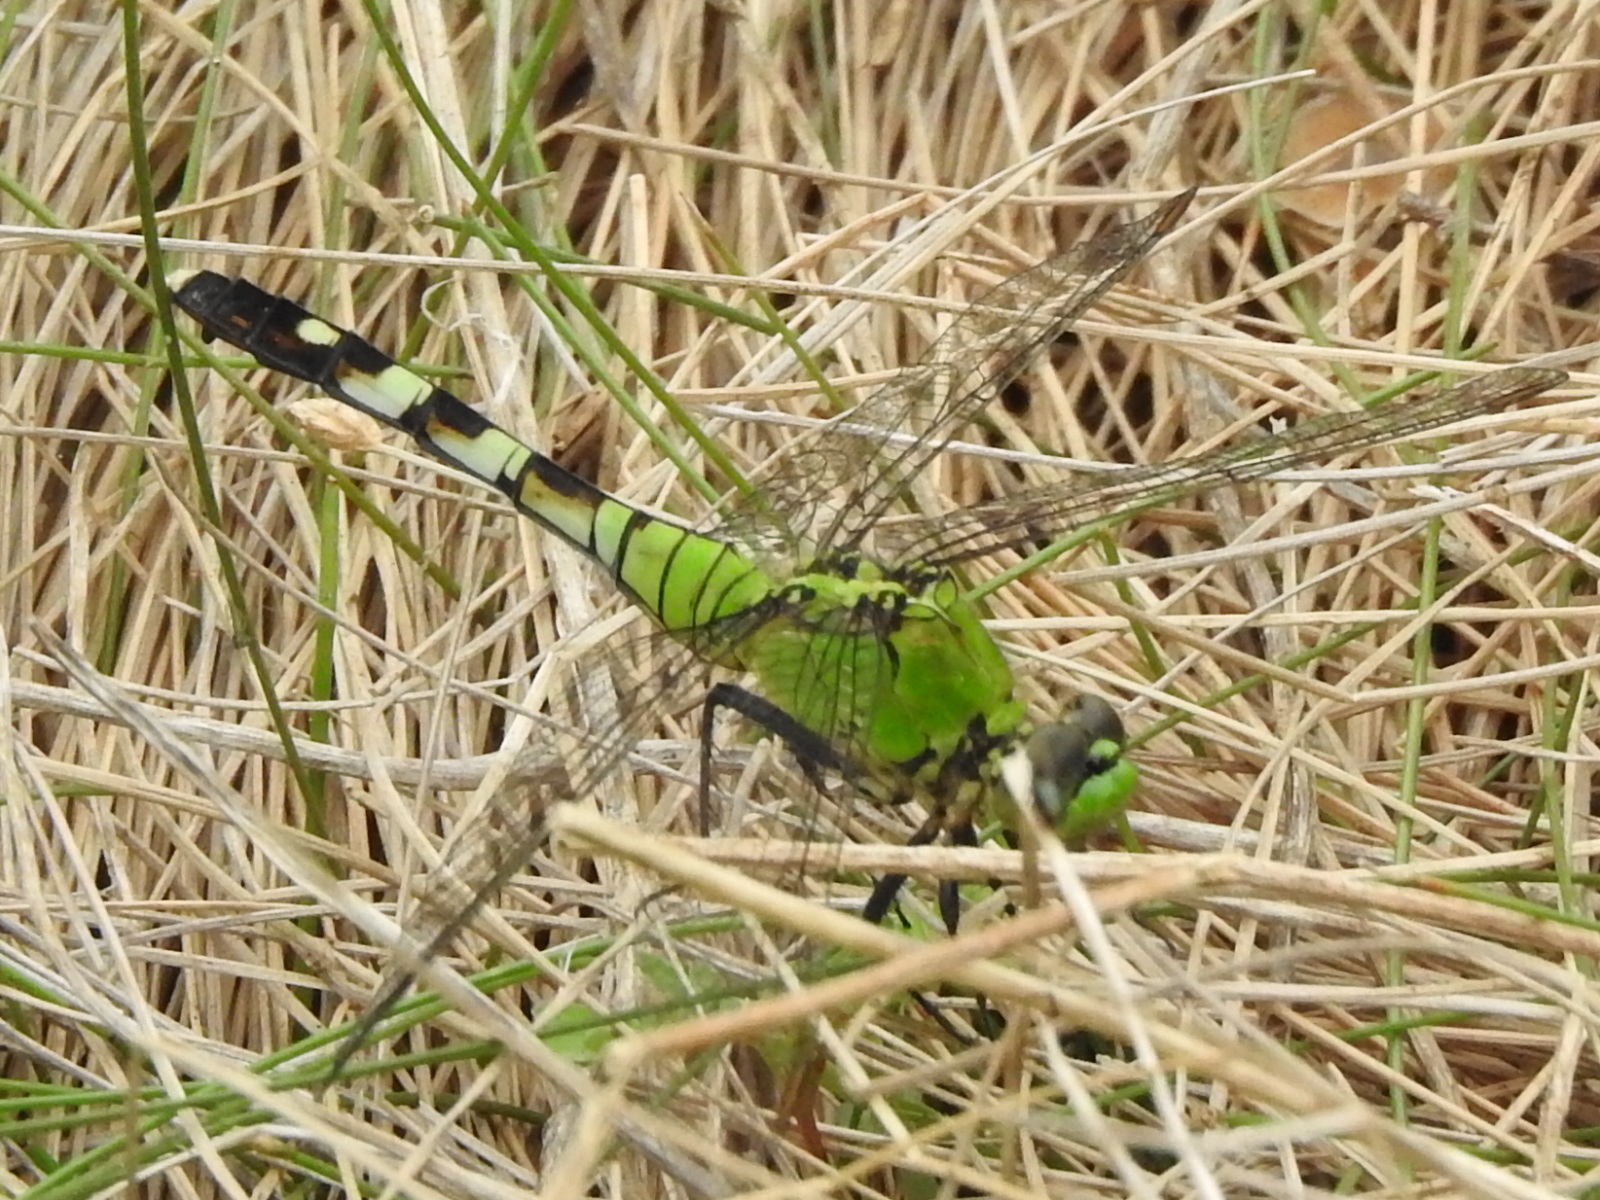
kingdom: Animalia
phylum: Arthropoda
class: Insecta
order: Odonata
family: Libellulidae
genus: Erythemis
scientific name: Erythemis simplicicollis
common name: Eastern pondhawk
